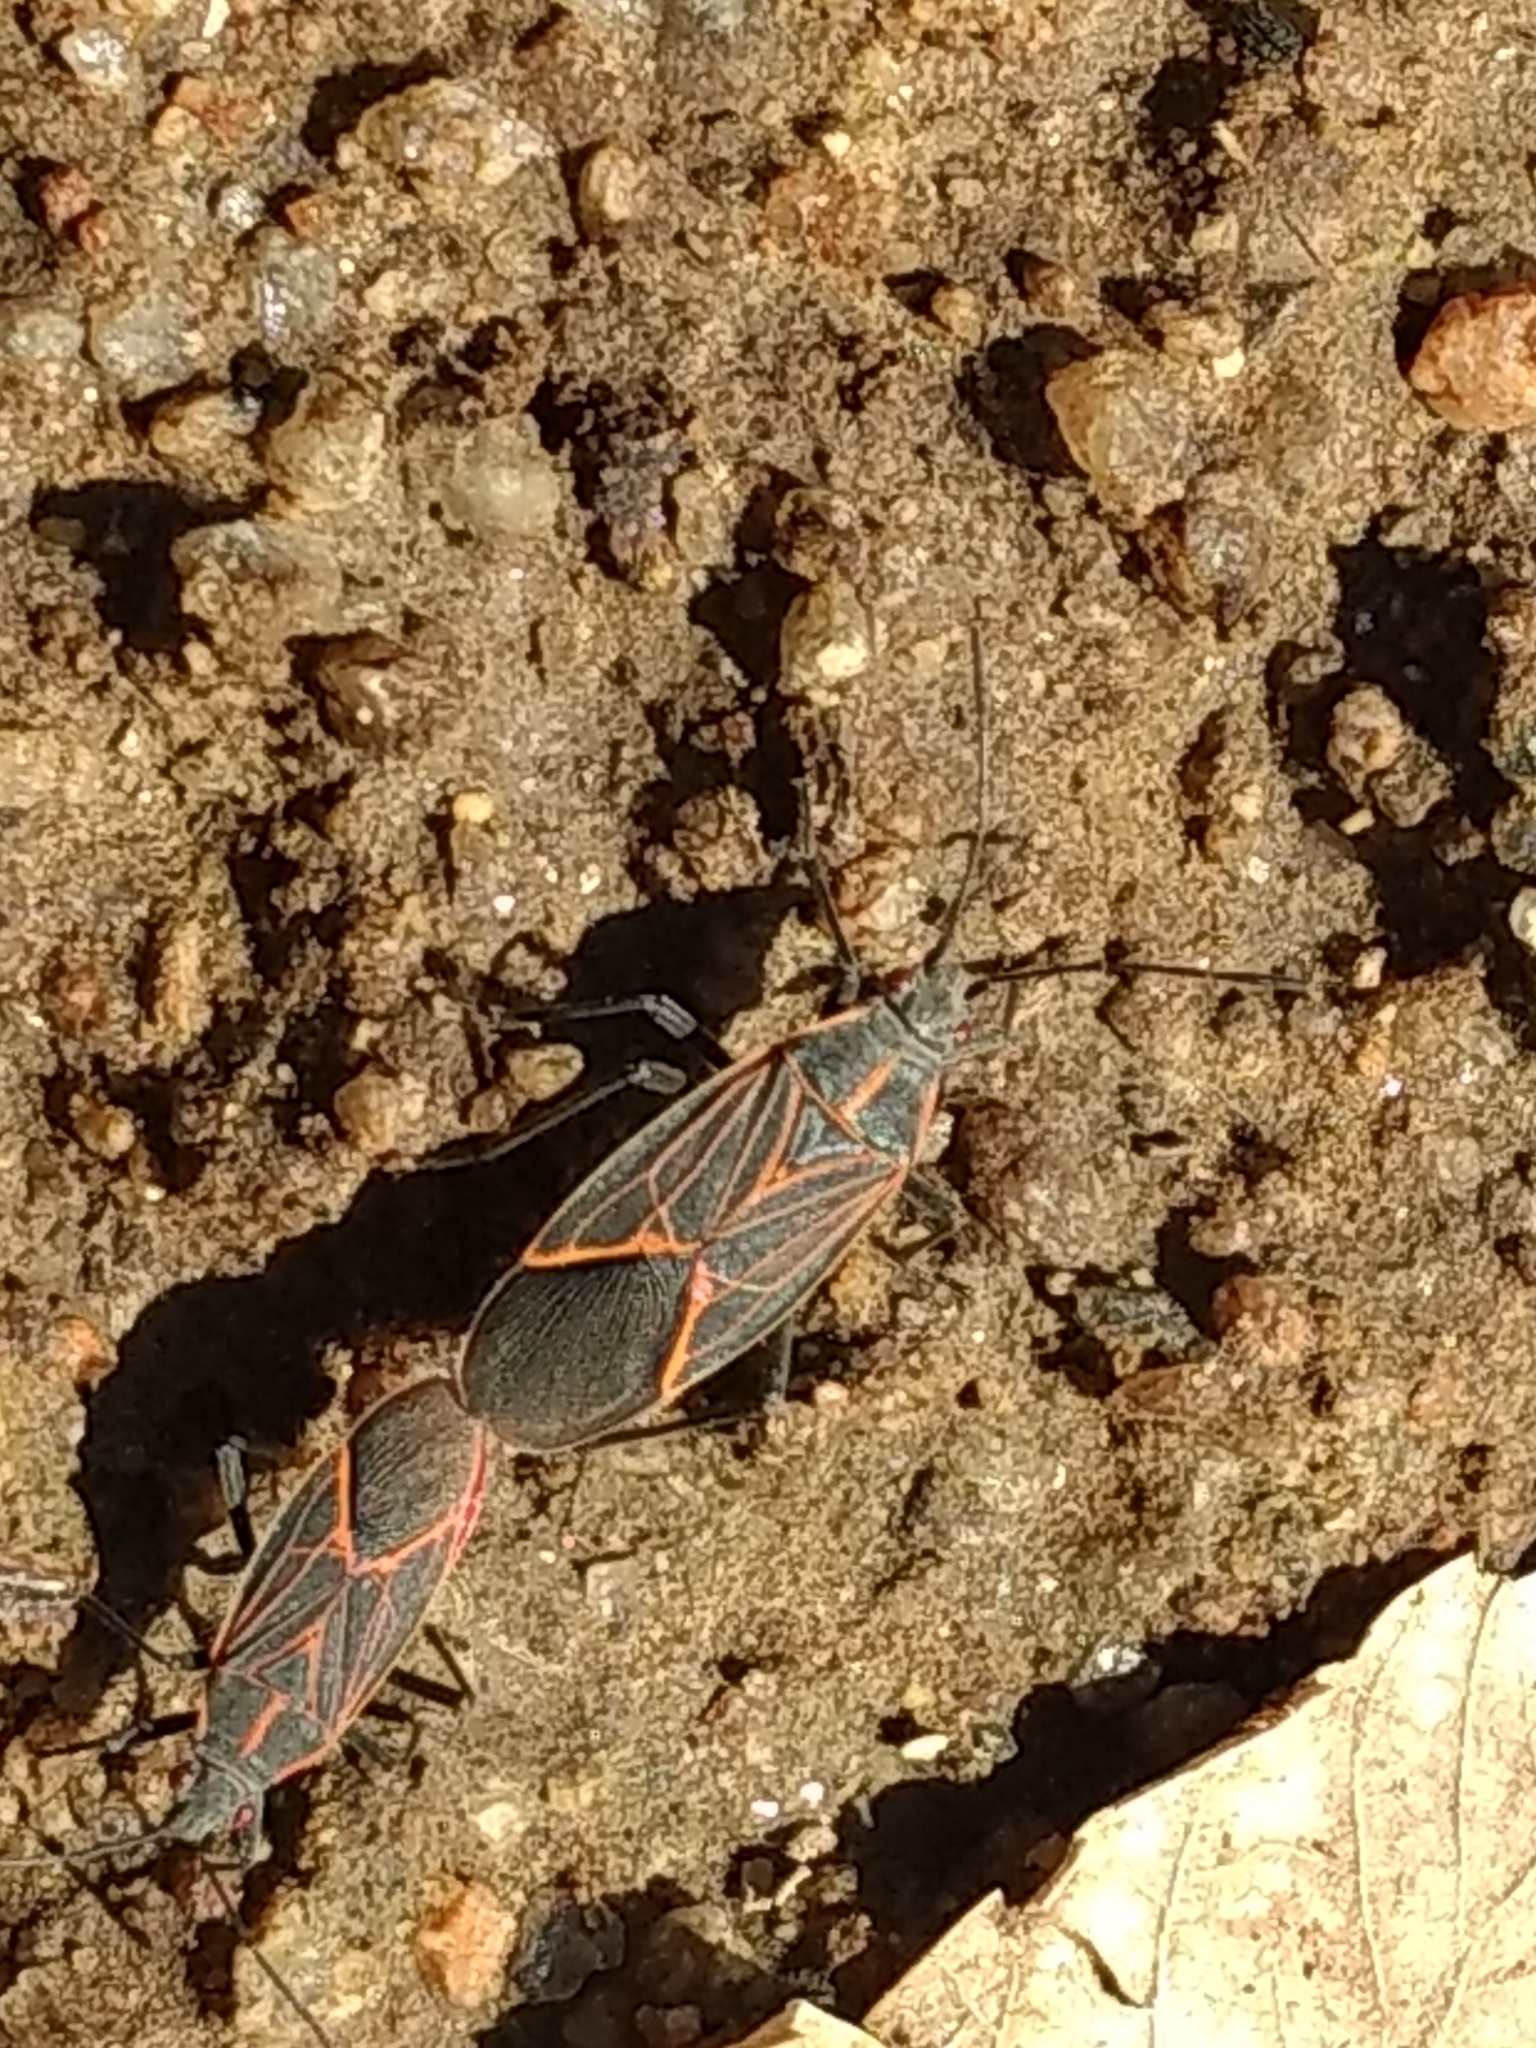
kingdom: Animalia
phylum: Arthropoda
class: Insecta
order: Hemiptera
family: Rhopalidae
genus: Boisea
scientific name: Boisea rubrolineata
